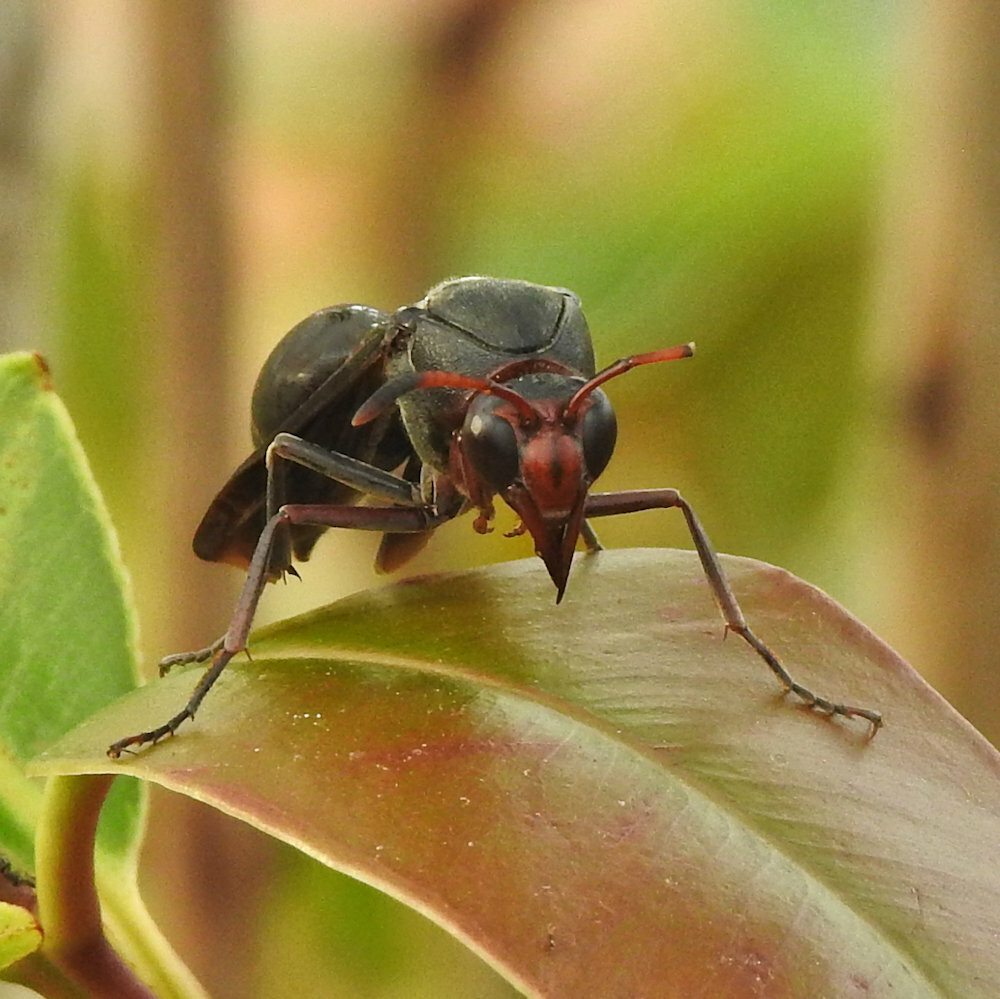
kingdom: Animalia
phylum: Arthropoda
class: Insecta
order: Hymenoptera
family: Eumenidae
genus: Delta
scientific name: Delta emarginatum
